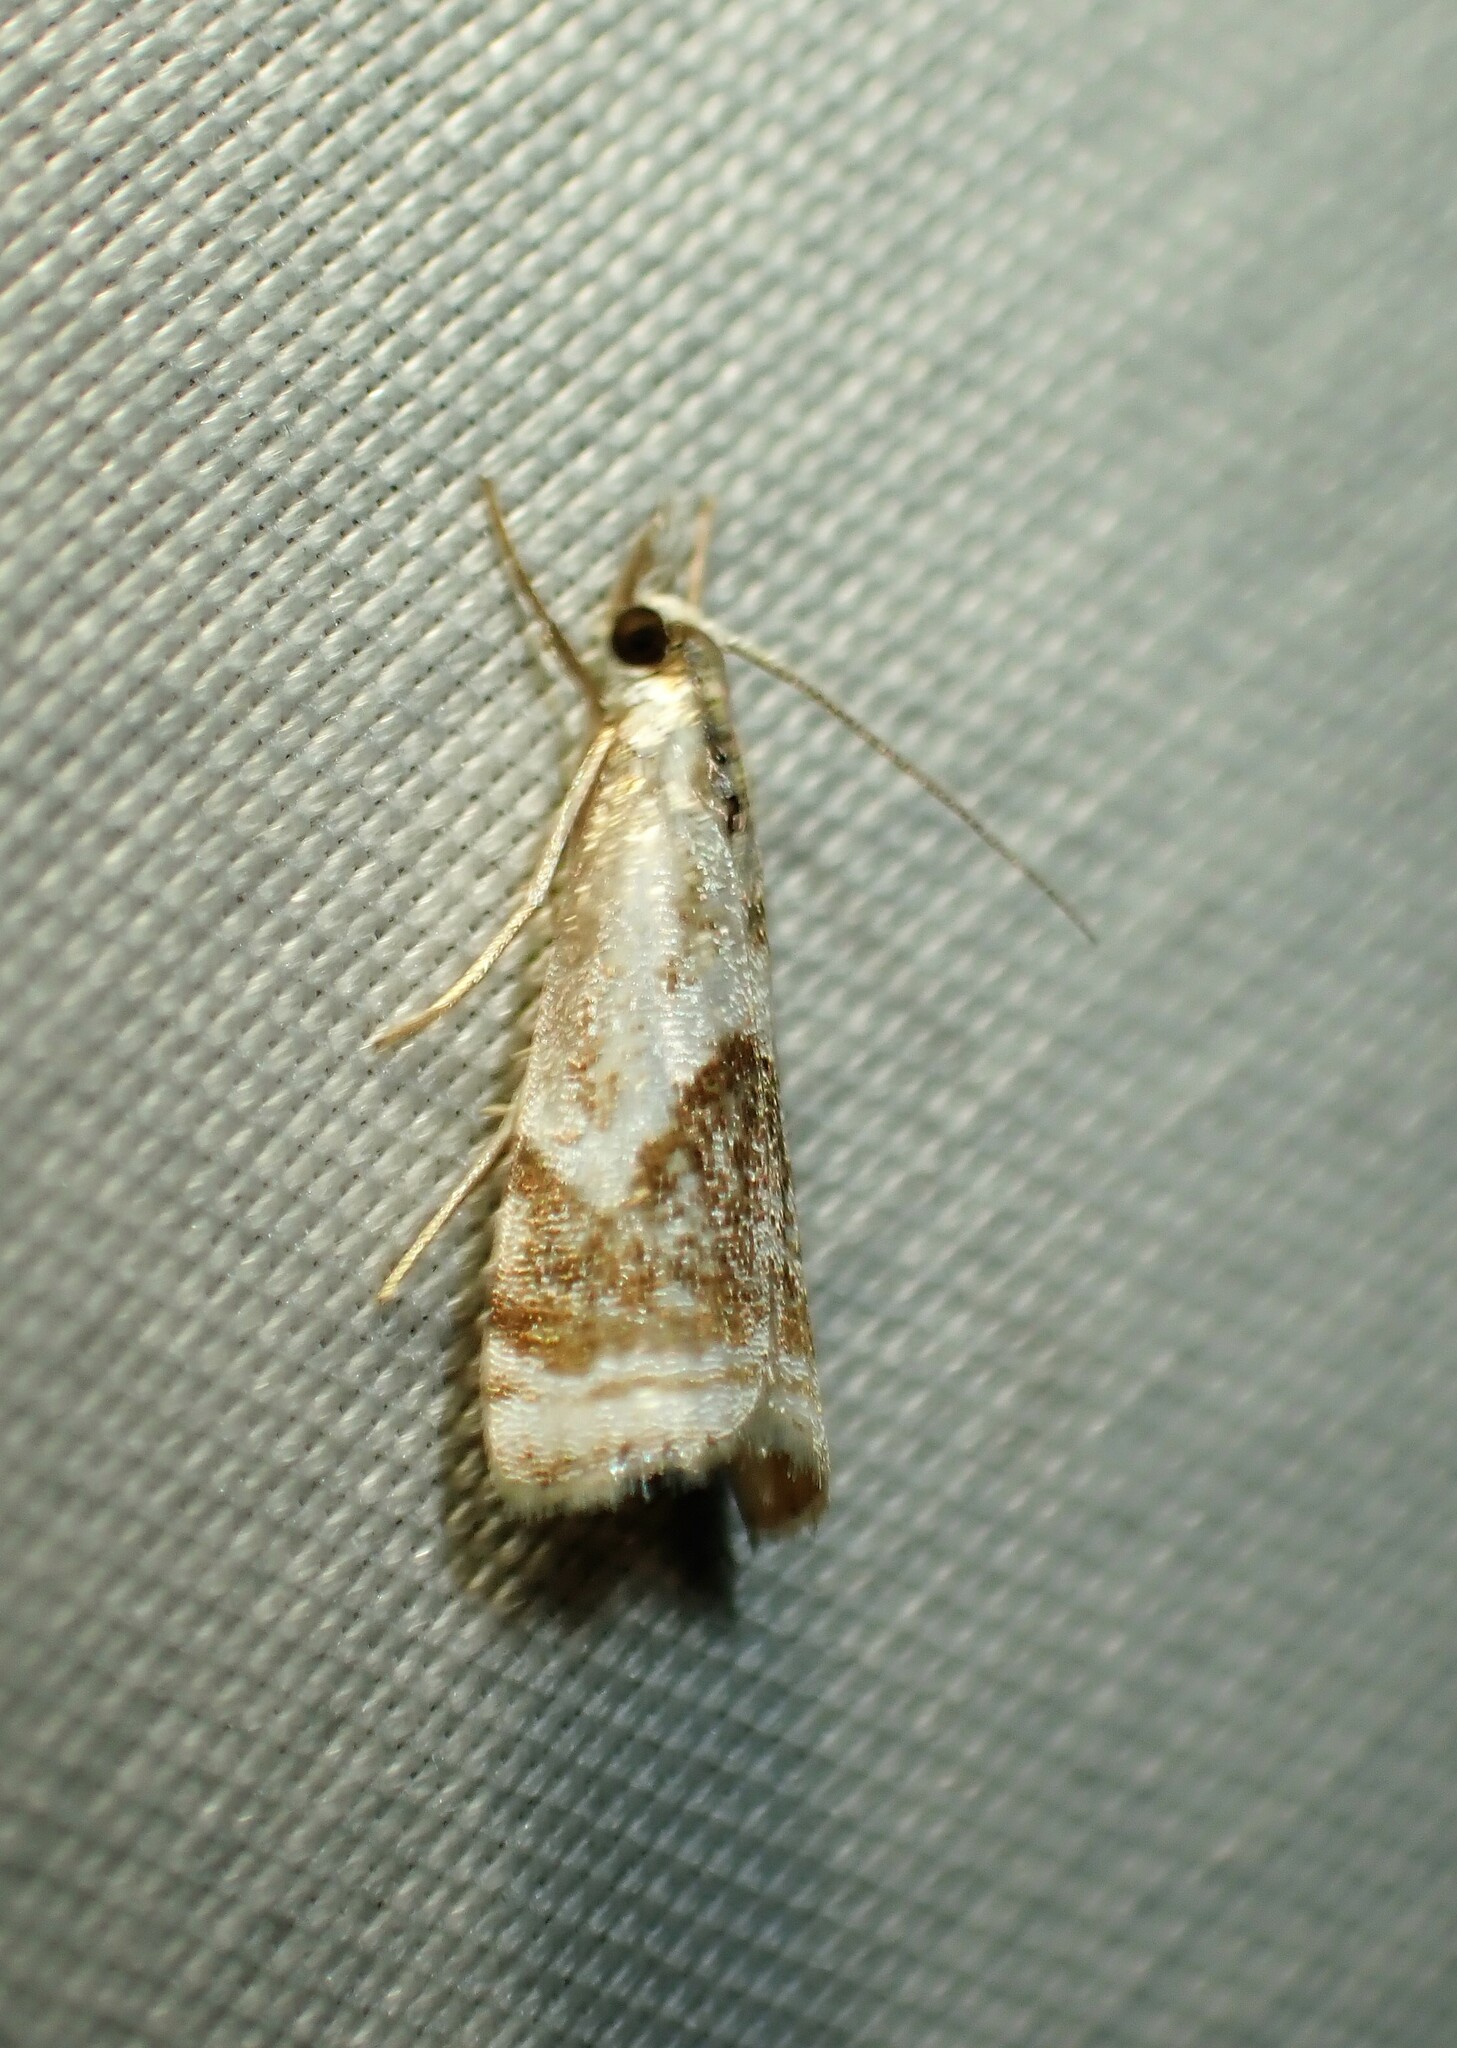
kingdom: Animalia
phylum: Arthropoda
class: Insecta
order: Lepidoptera
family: Crambidae
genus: Microcrambus
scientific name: Microcrambus elegans
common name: Elegant grass-veneer
